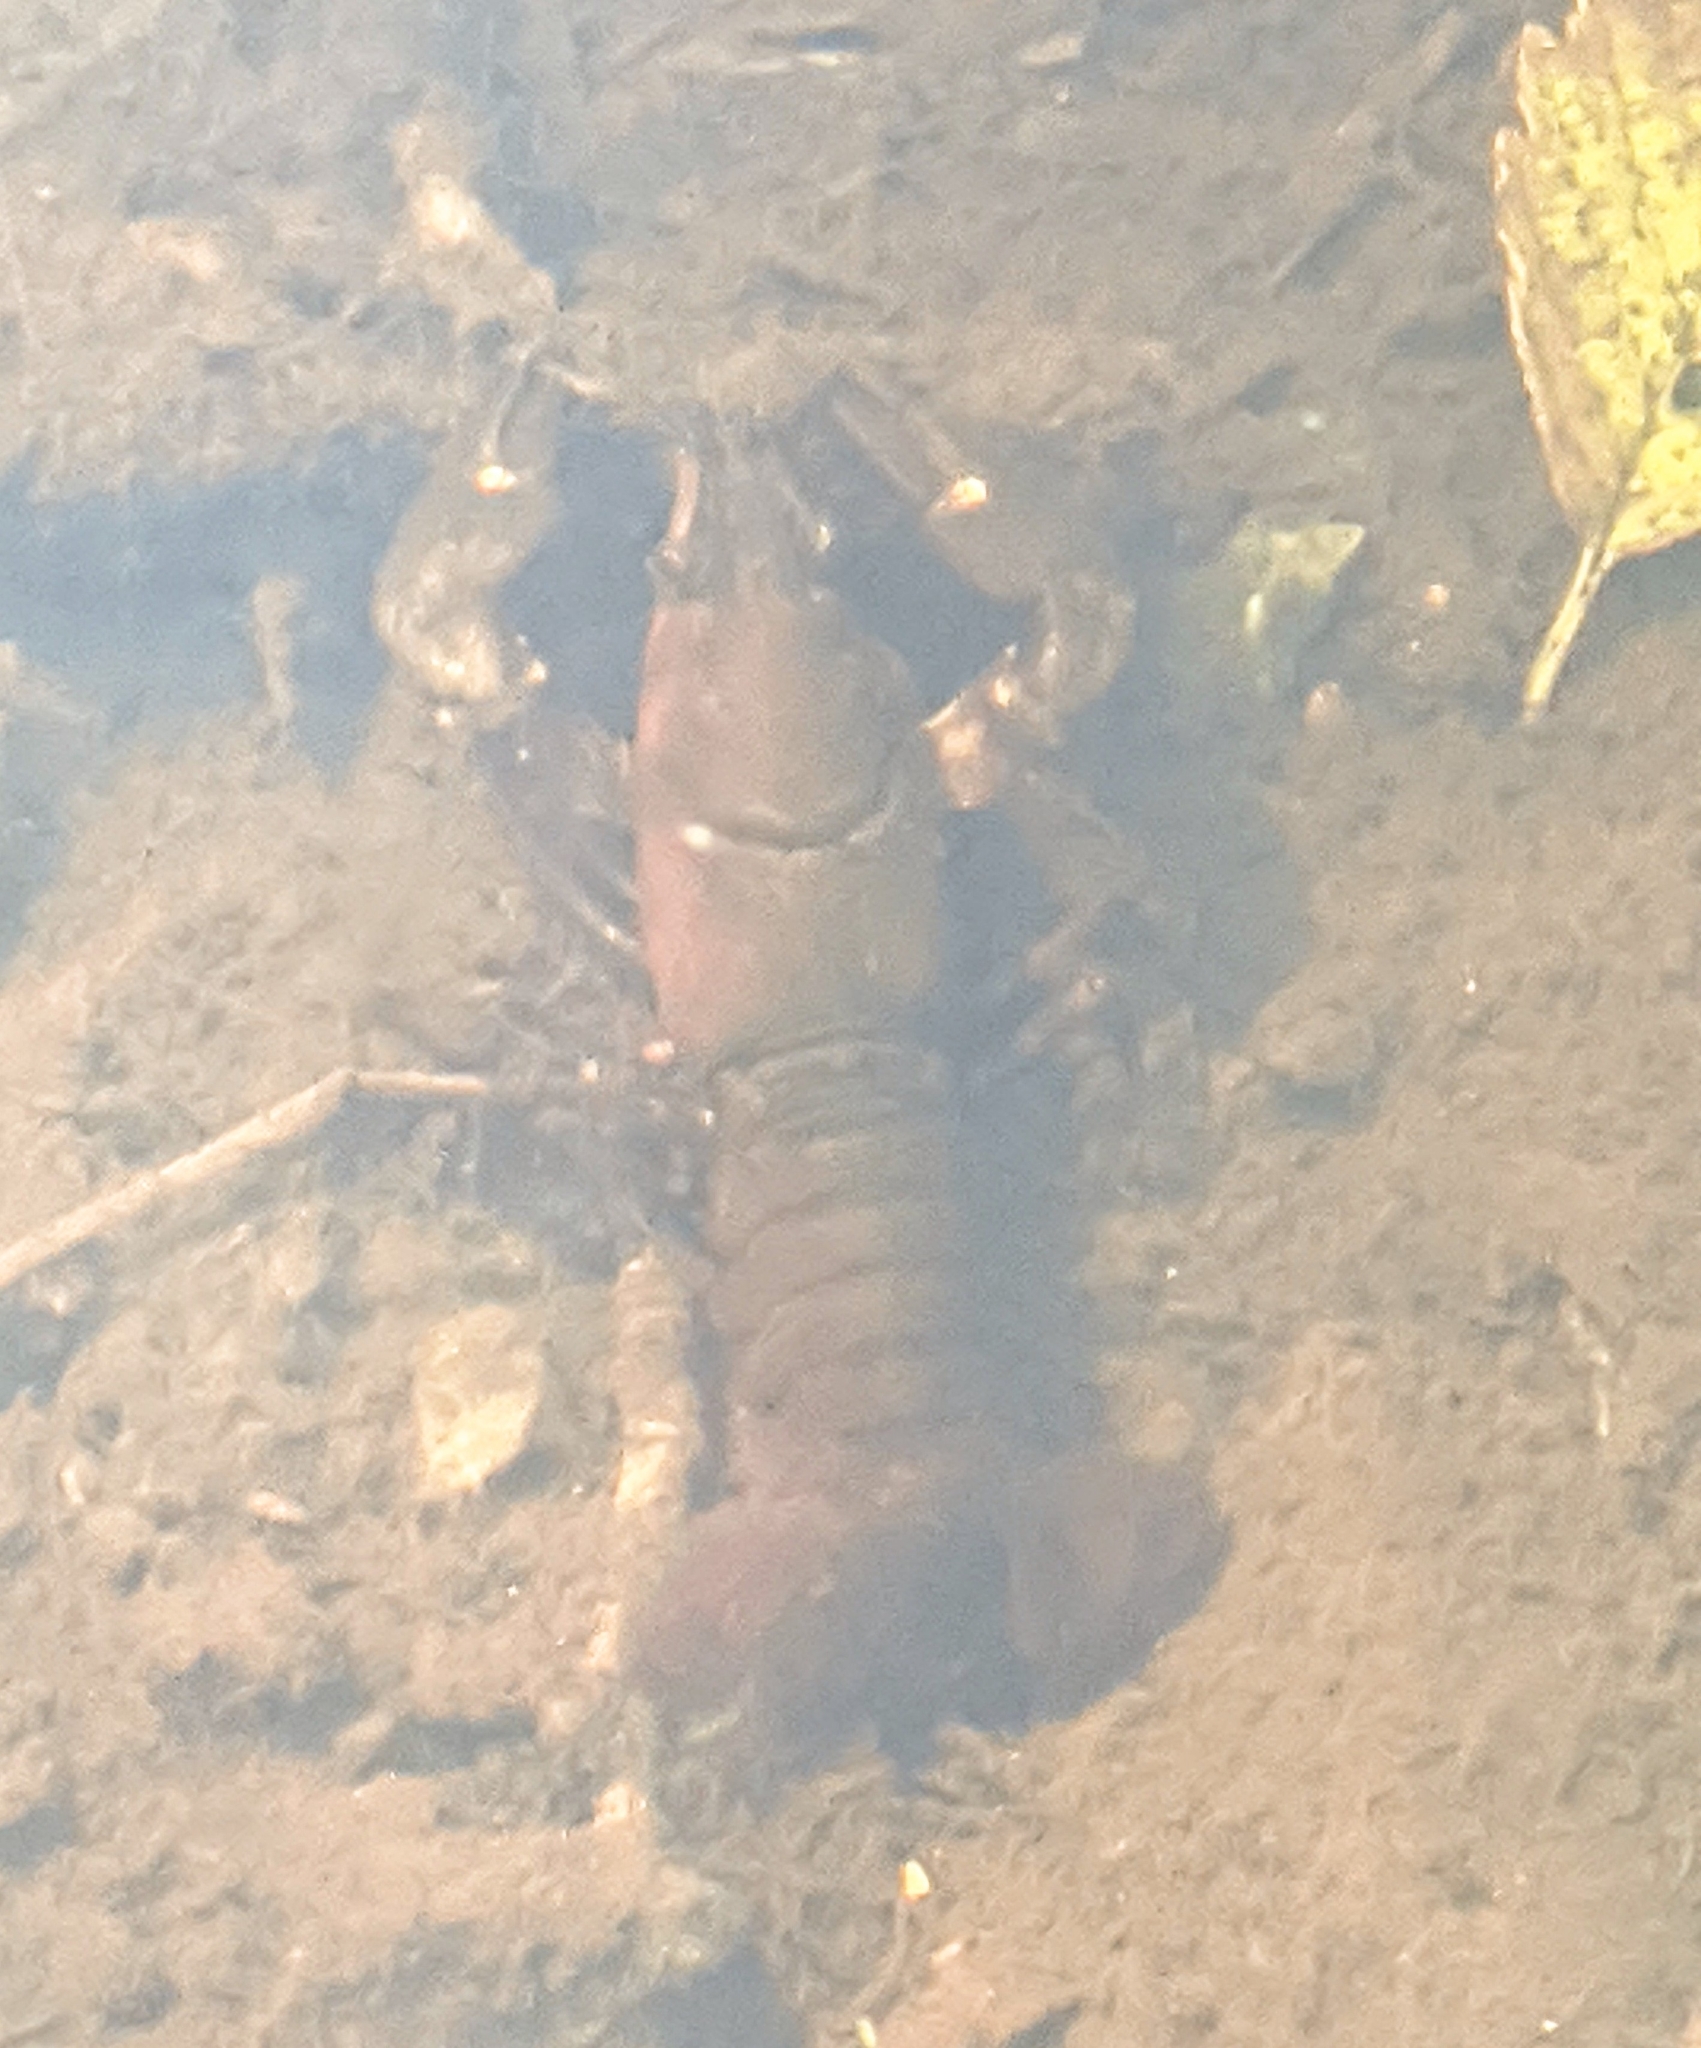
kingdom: Animalia
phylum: Arthropoda
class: Malacostraca
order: Decapoda
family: Astacidae
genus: Pacifastacus
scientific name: Pacifastacus leniusculus
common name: Signal crayfish
